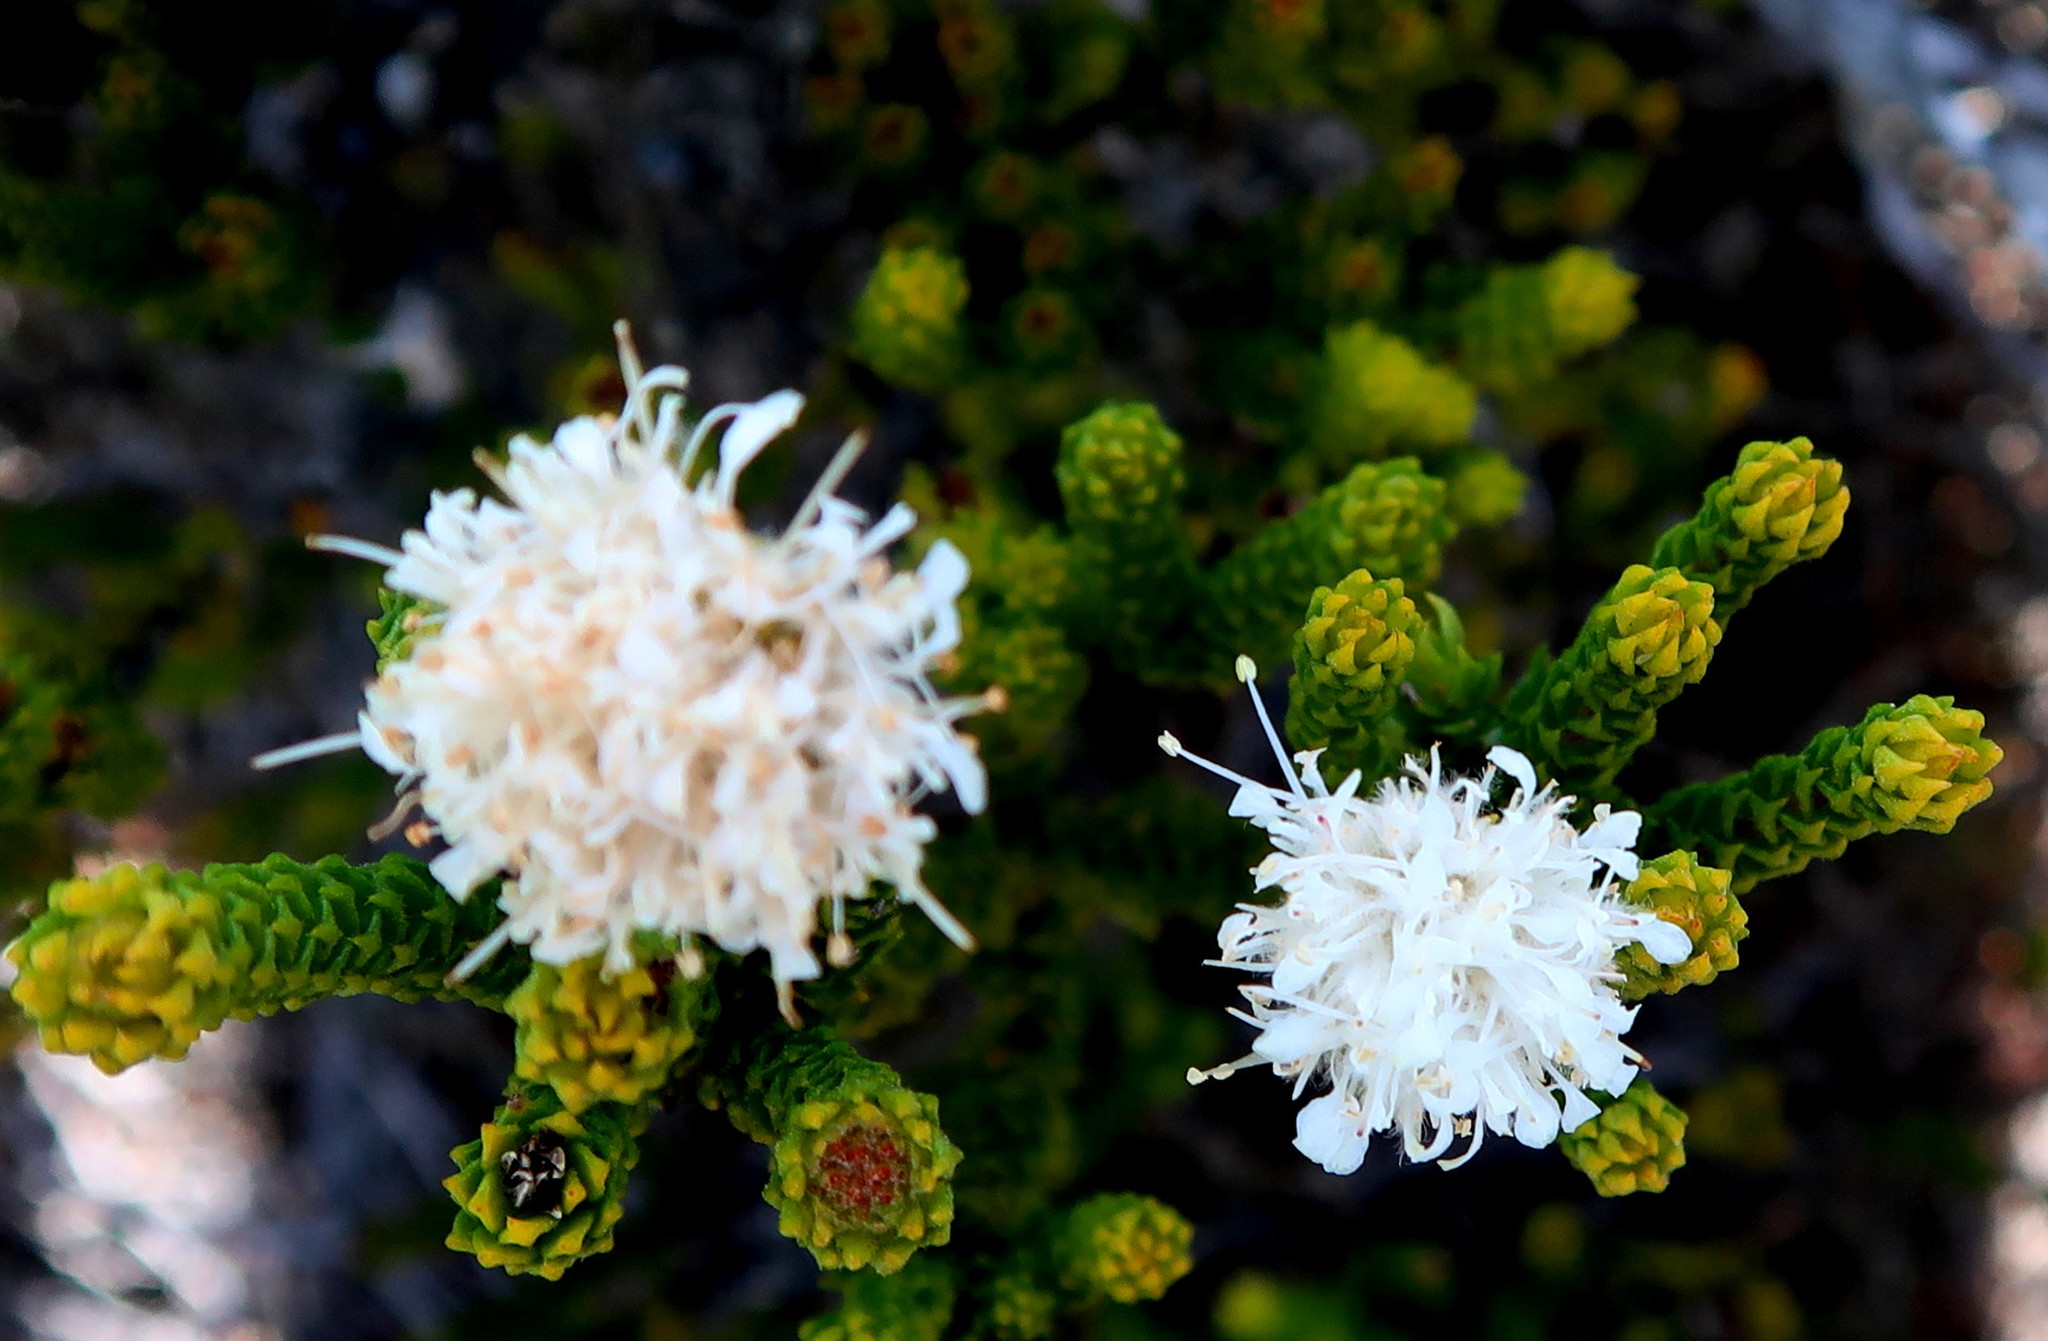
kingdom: Plantae
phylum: Tracheophyta
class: Magnoliopsida
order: Sapindales
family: Rutaceae
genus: Agathosma
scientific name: Agathosma eriantha
